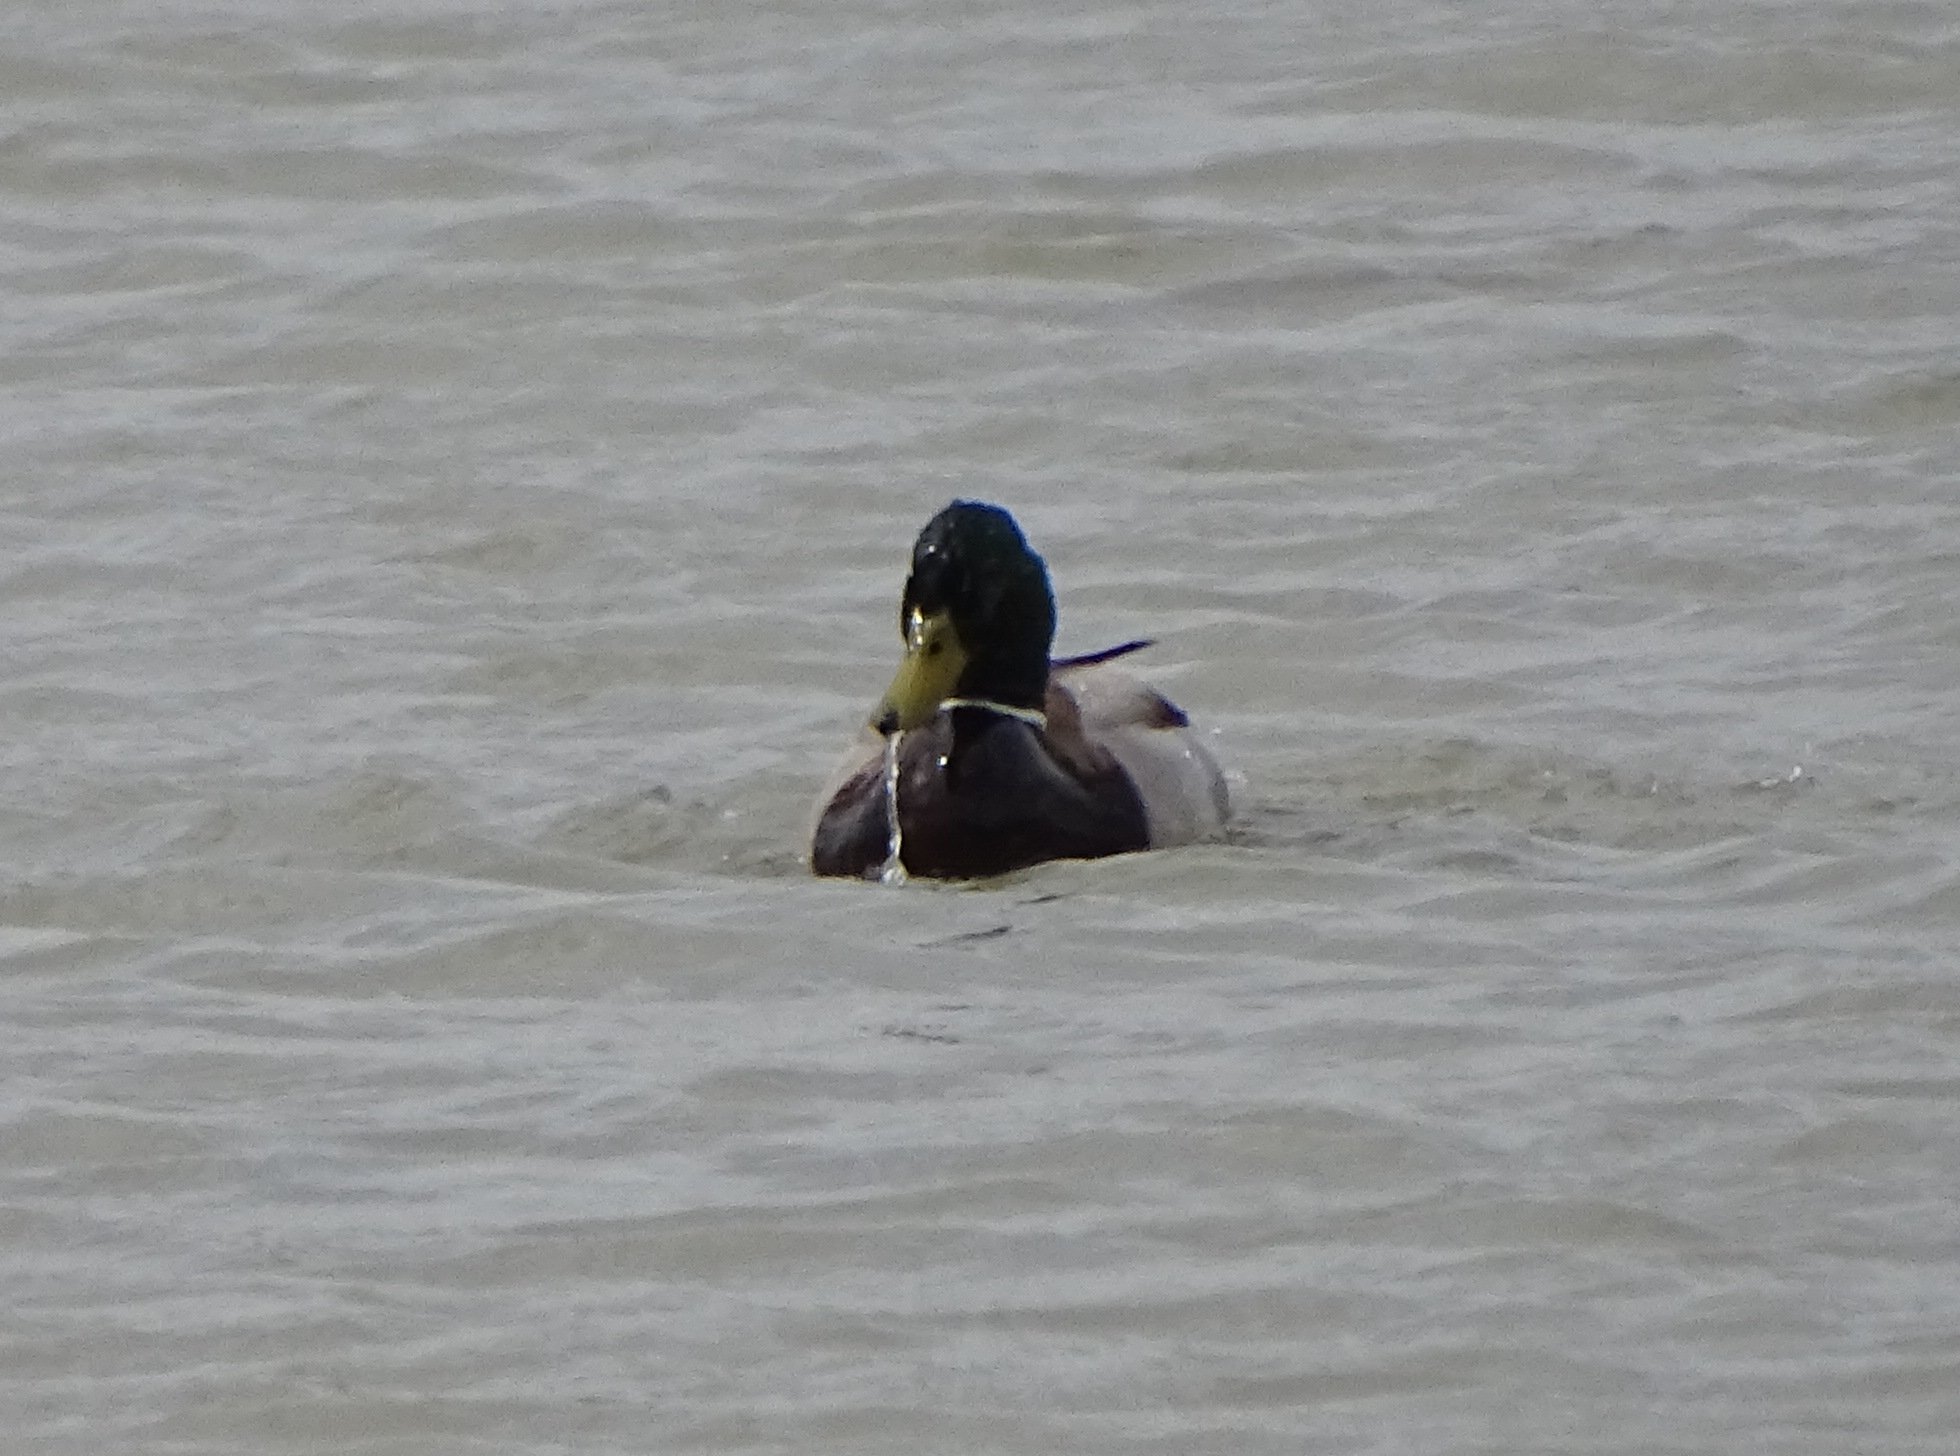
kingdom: Animalia
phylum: Chordata
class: Aves
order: Anseriformes
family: Anatidae
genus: Anas
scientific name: Anas platyrhynchos
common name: Mallard
